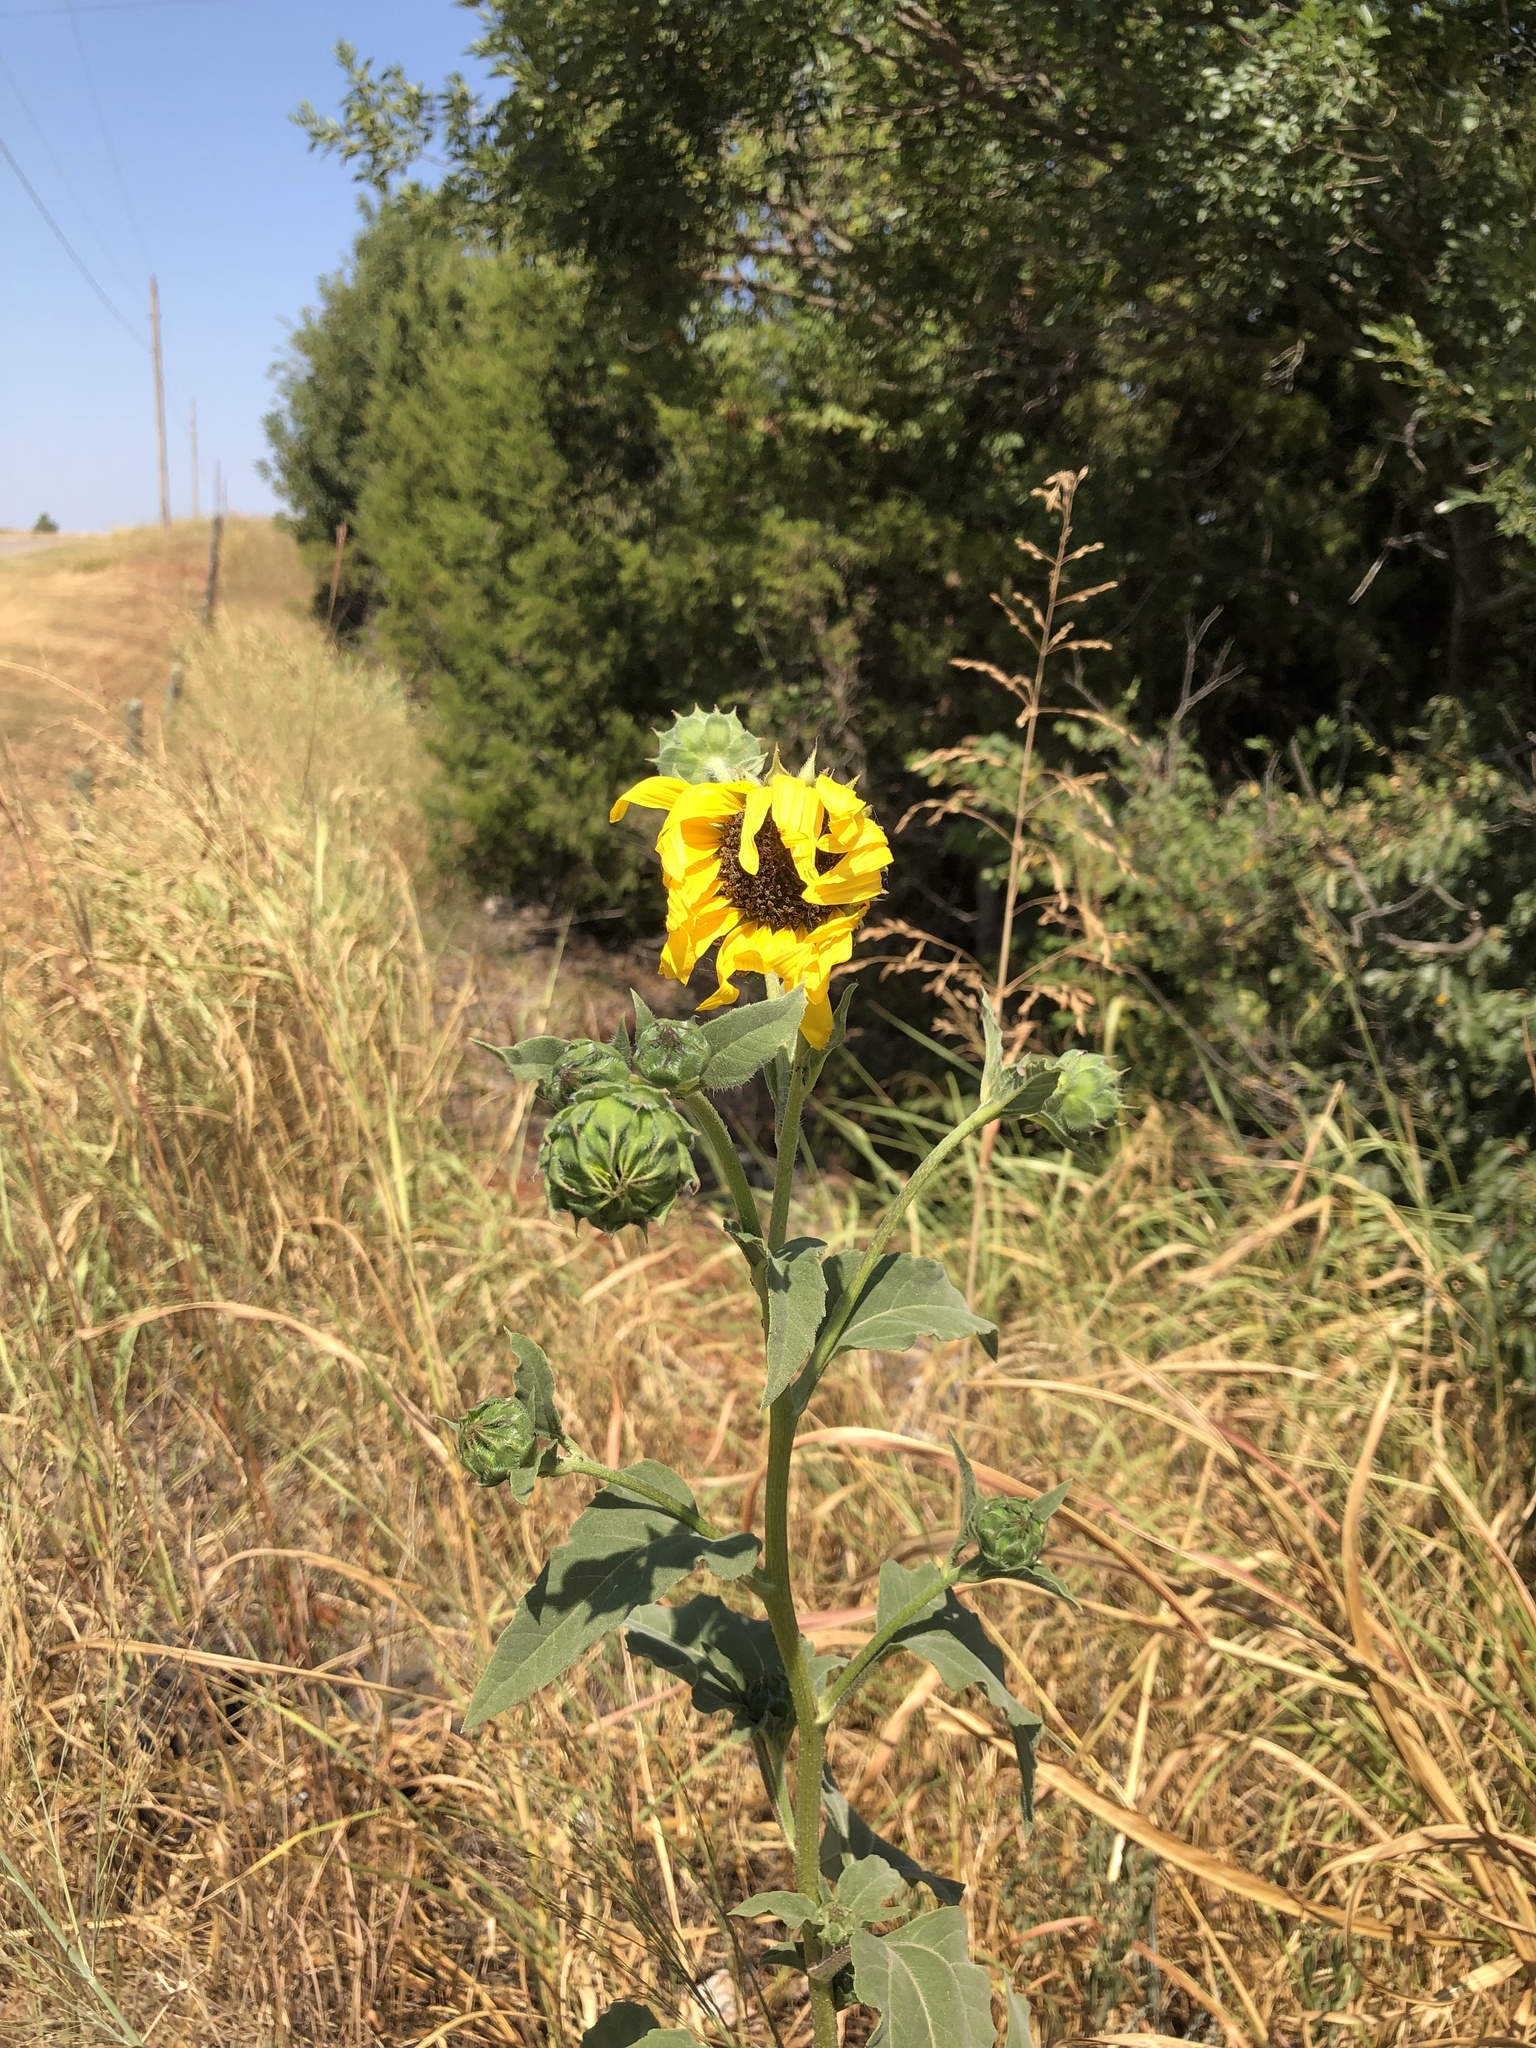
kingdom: Plantae
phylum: Tracheophyta
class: Magnoliopsida
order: Asterales
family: Asteraceae
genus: Helianthus
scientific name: Helianthus annuus
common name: Sunflower
